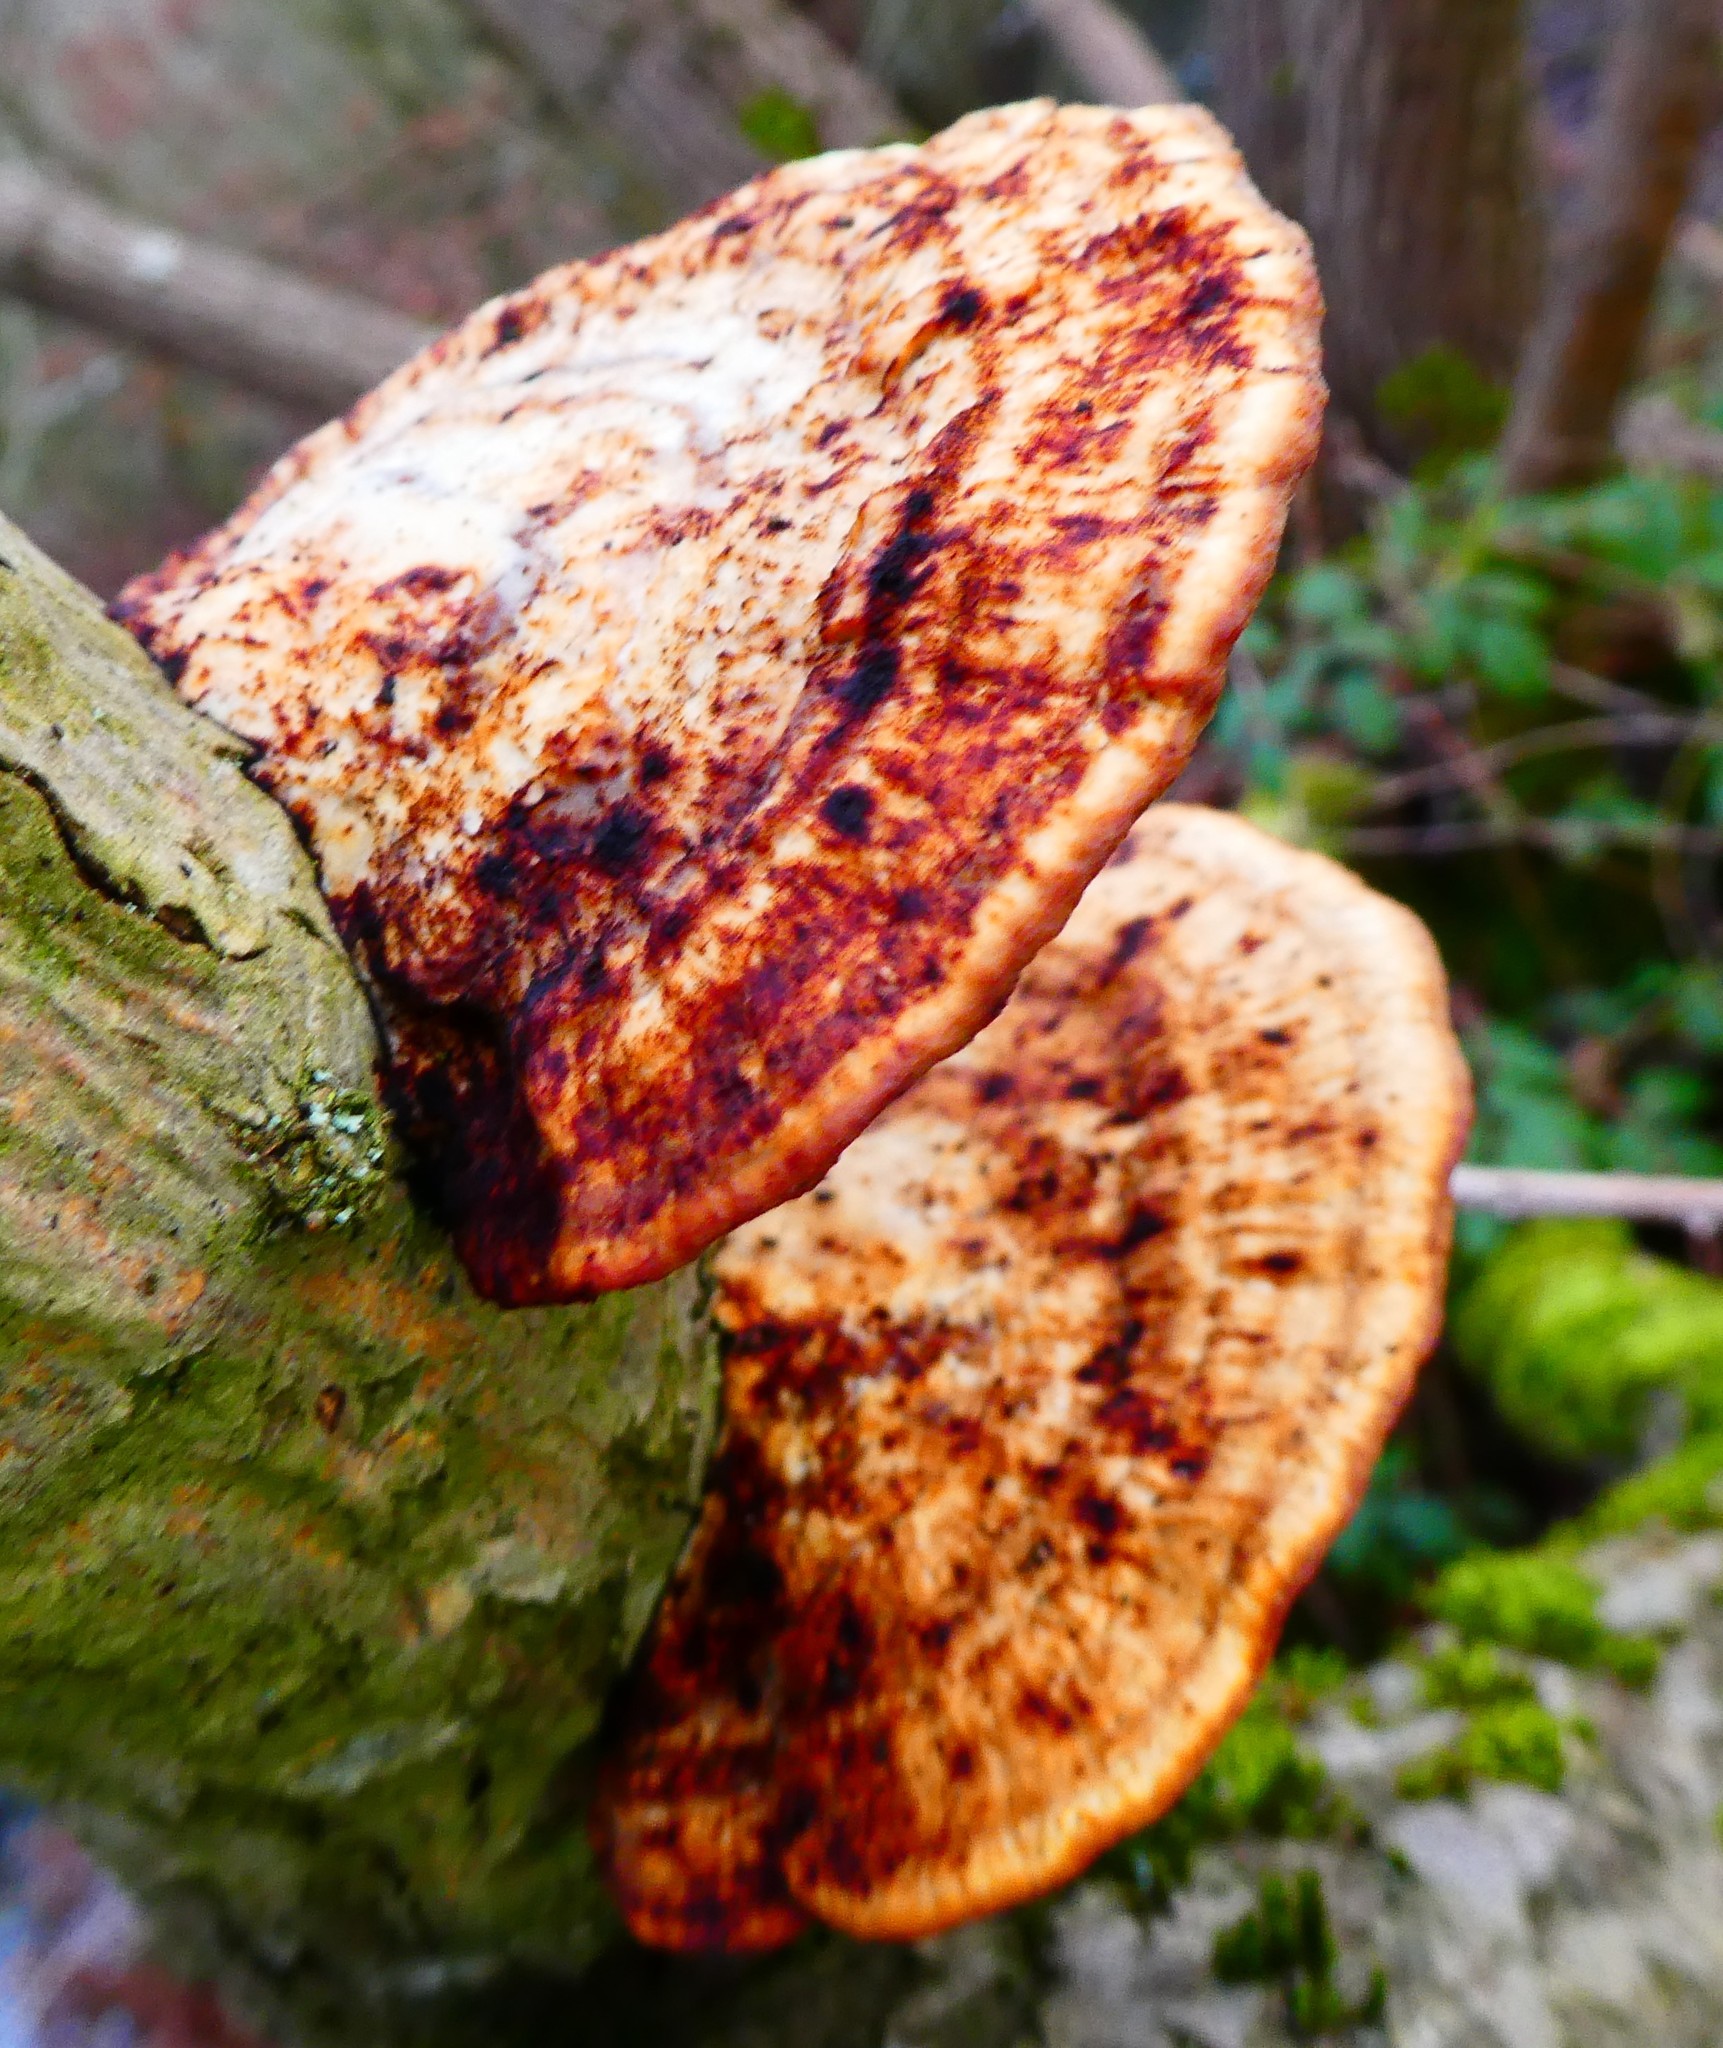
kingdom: Fungi
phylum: Basidiomycota
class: Agaricomycetes
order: Polyporales
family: Polyporaceae
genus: Daedaleopsis
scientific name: Daedaleopsis confragosa
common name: Blushing bracket
